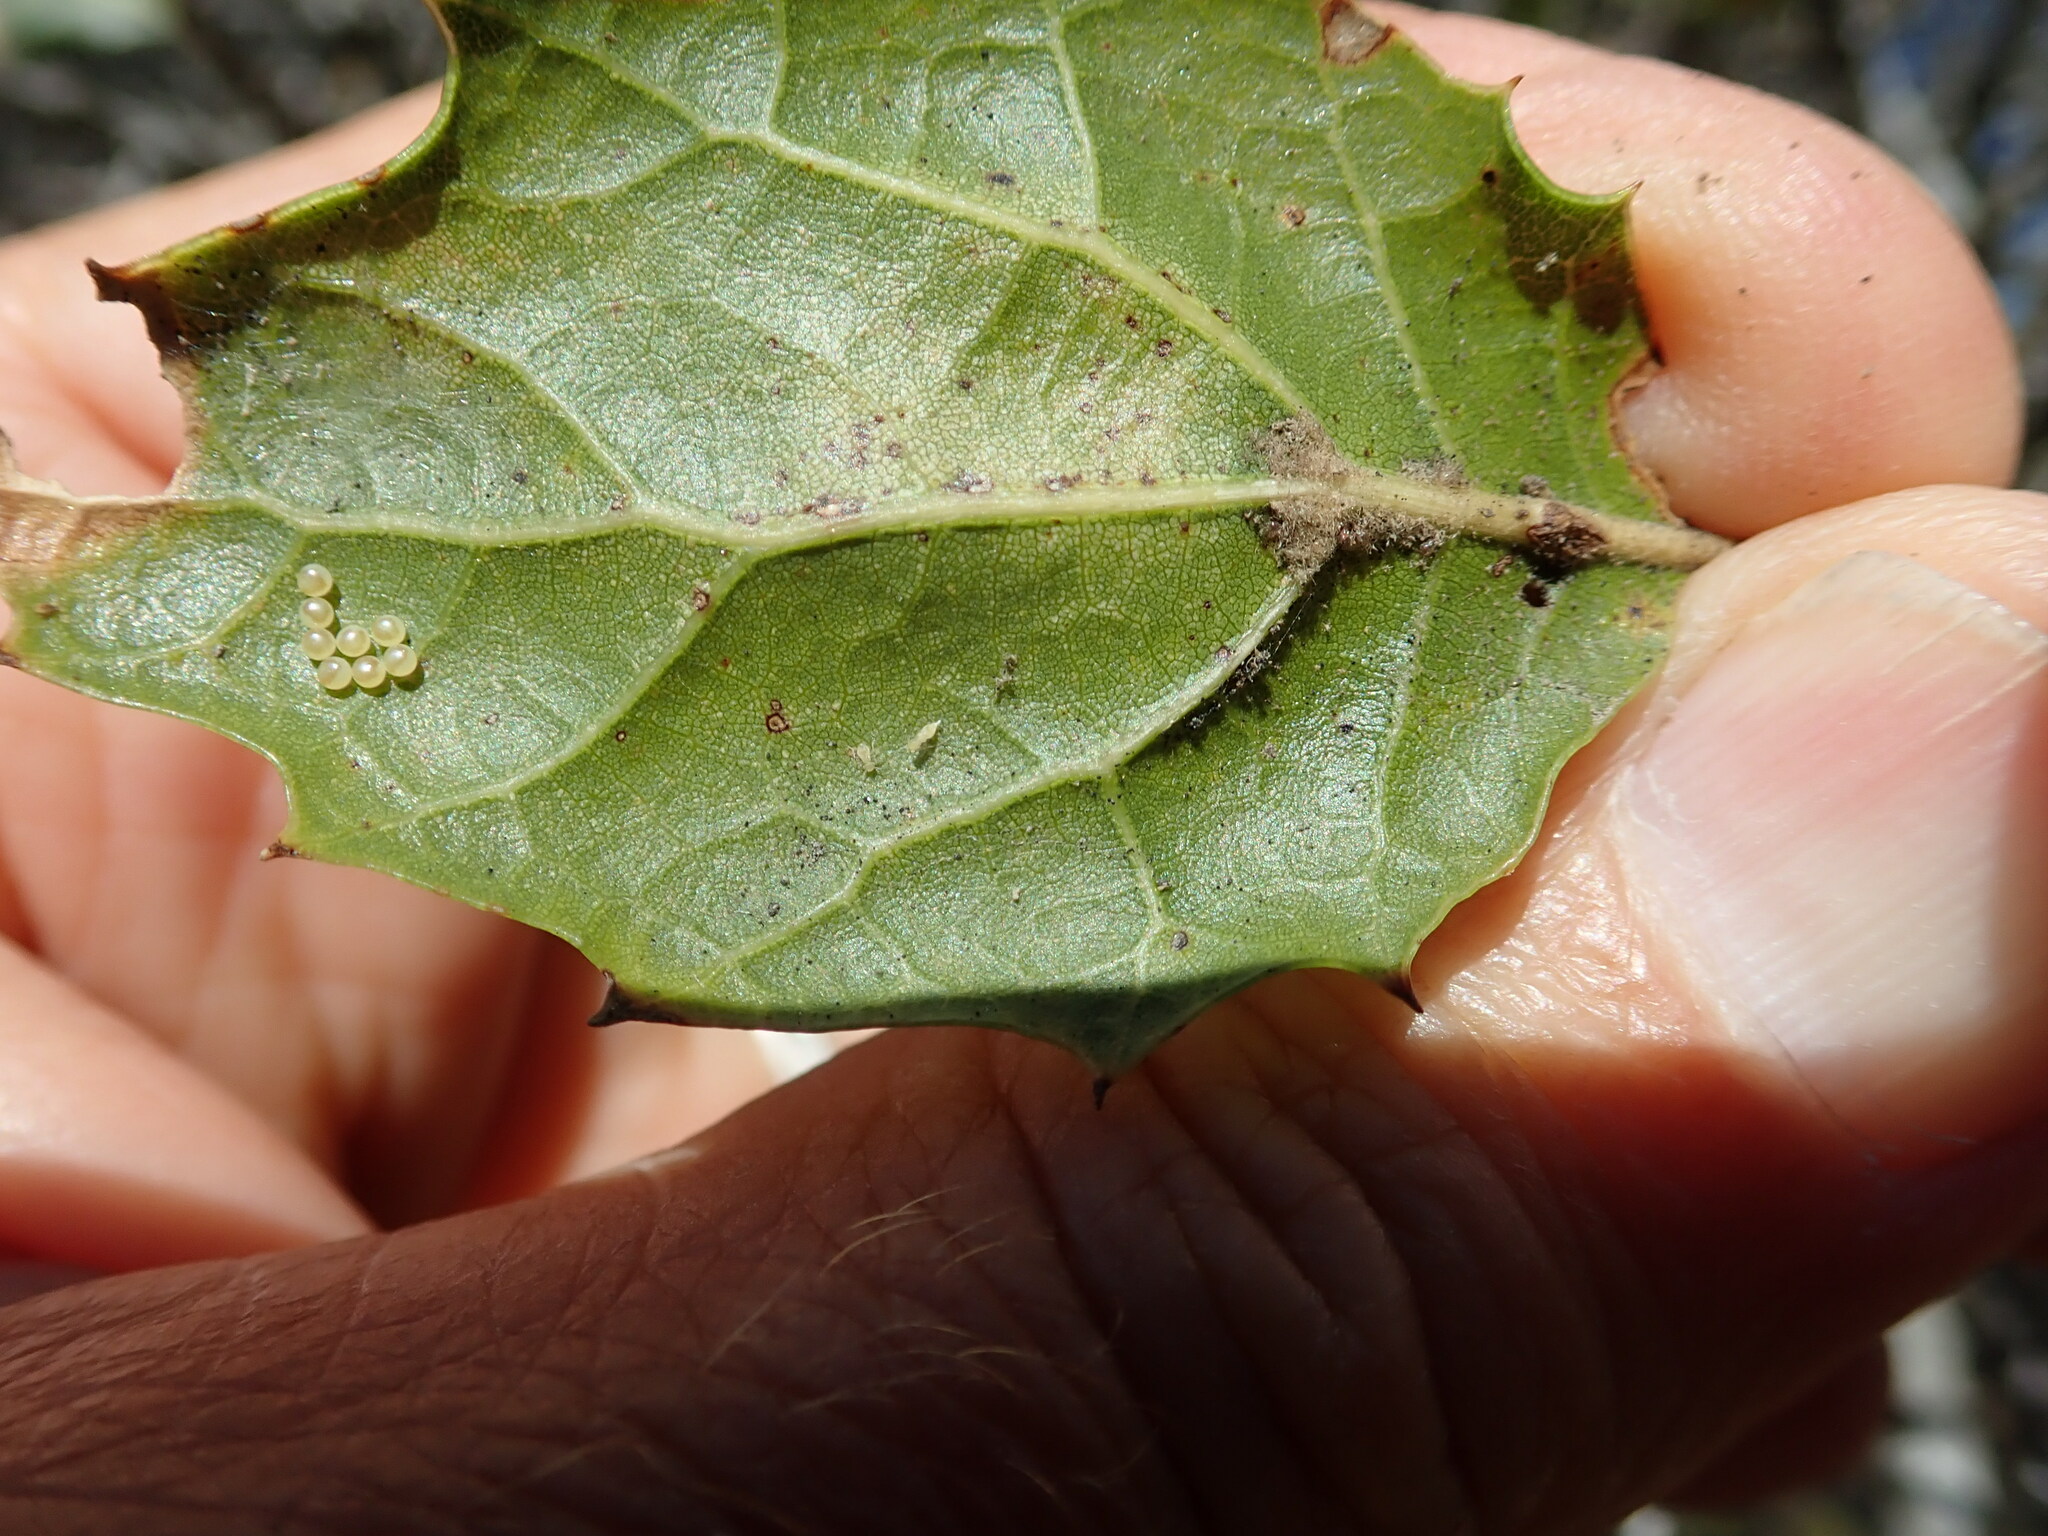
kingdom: Animalia
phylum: Arthropoda
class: Insecta
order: Lepidoptera
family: Notodontidae
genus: Phryganidia
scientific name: Phryganidia californica
